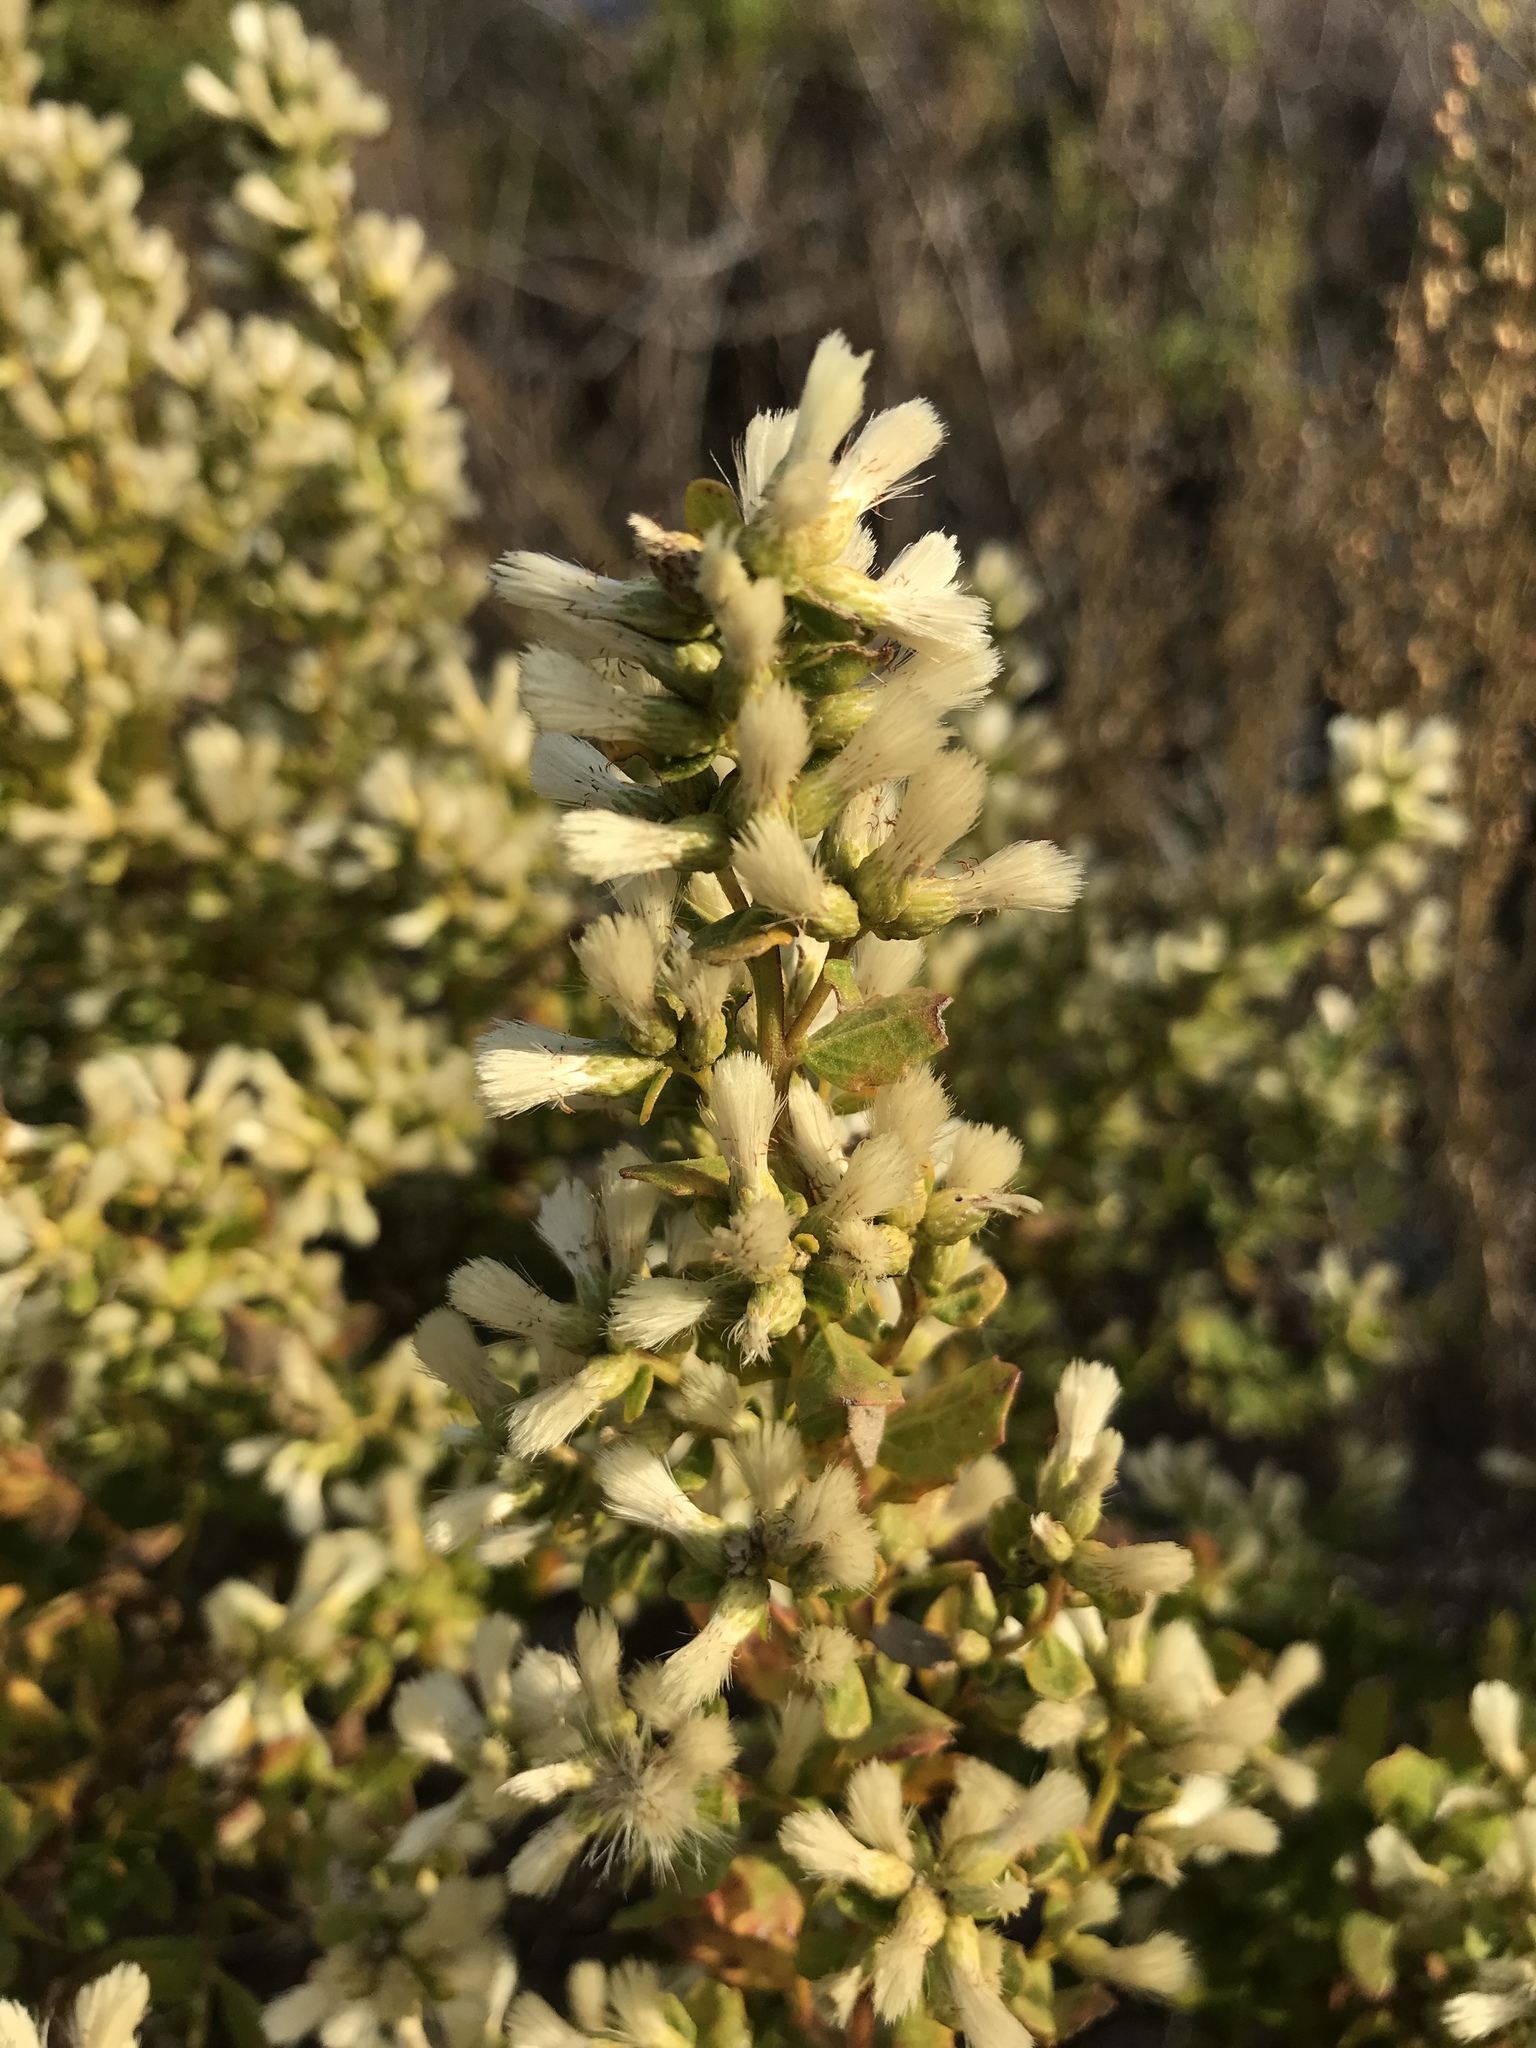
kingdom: Plantae
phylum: Tracheophyta
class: Magnoliopsida
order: Asterales
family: Asteraceae
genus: Baccharis
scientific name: Baccharis pilularis
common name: Coyotebrush
